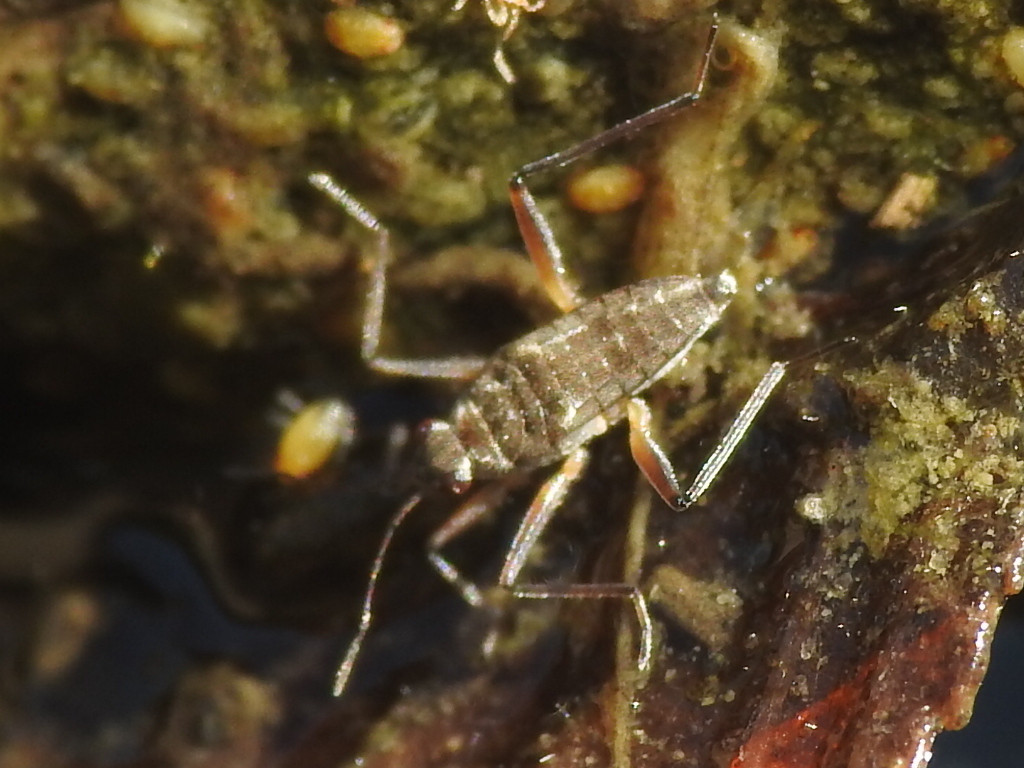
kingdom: Animalia
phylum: Arthropoda
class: Insecta
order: Hemiptera
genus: Kirkaldya
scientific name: Kirkaldya
